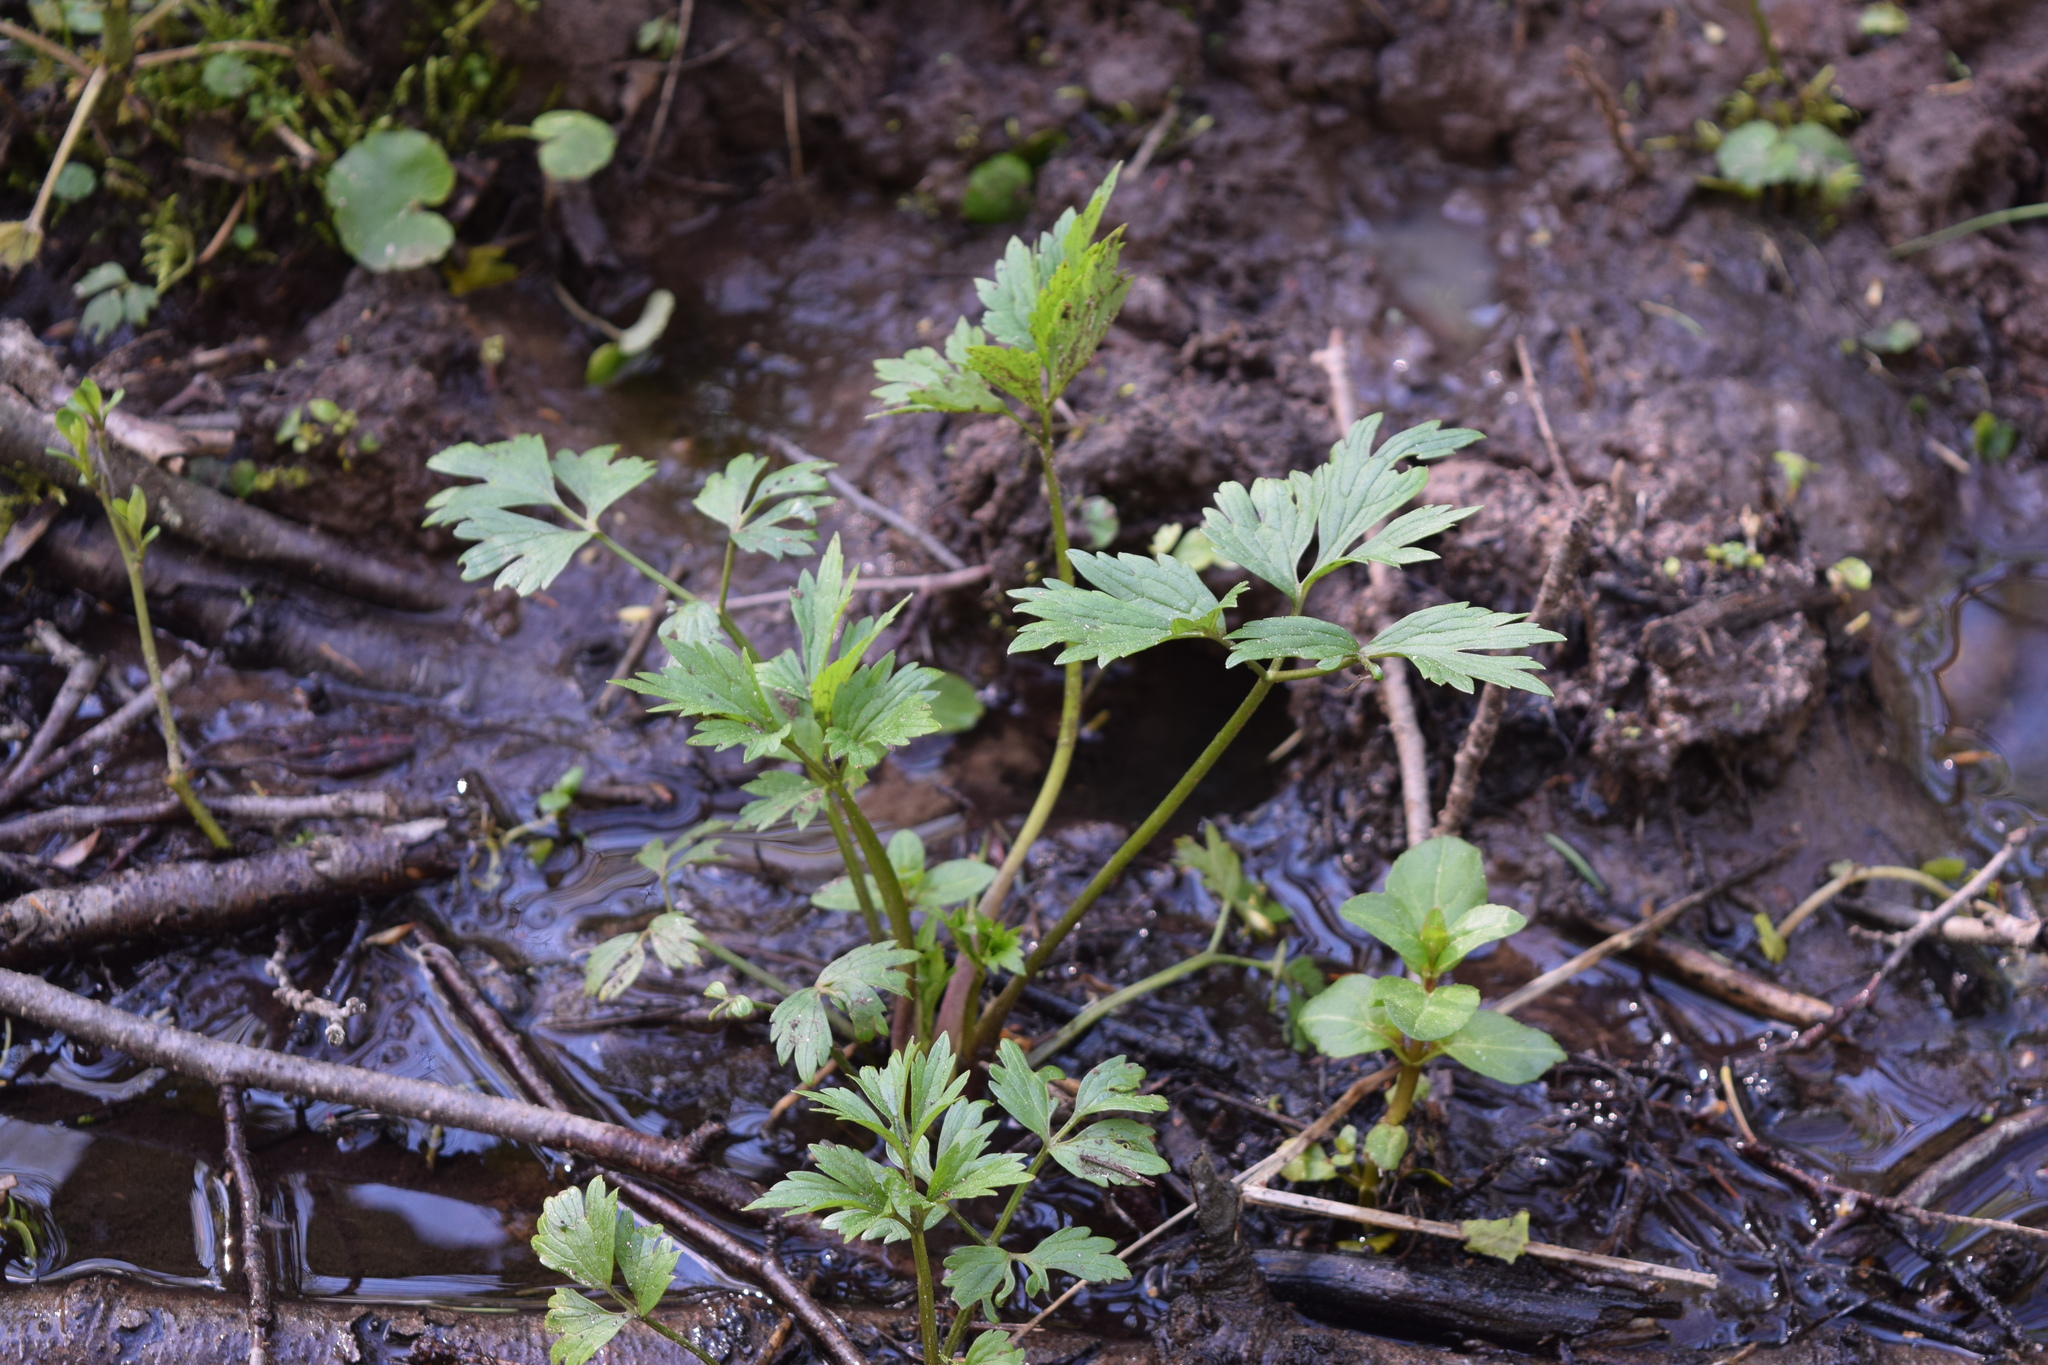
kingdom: Plantae
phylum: Tracheophyta
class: Magnoliopsida
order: Ranunculales
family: Ranunculaceae
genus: Ranunculus
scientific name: Ranunculus repens
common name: Creeping buttercup
